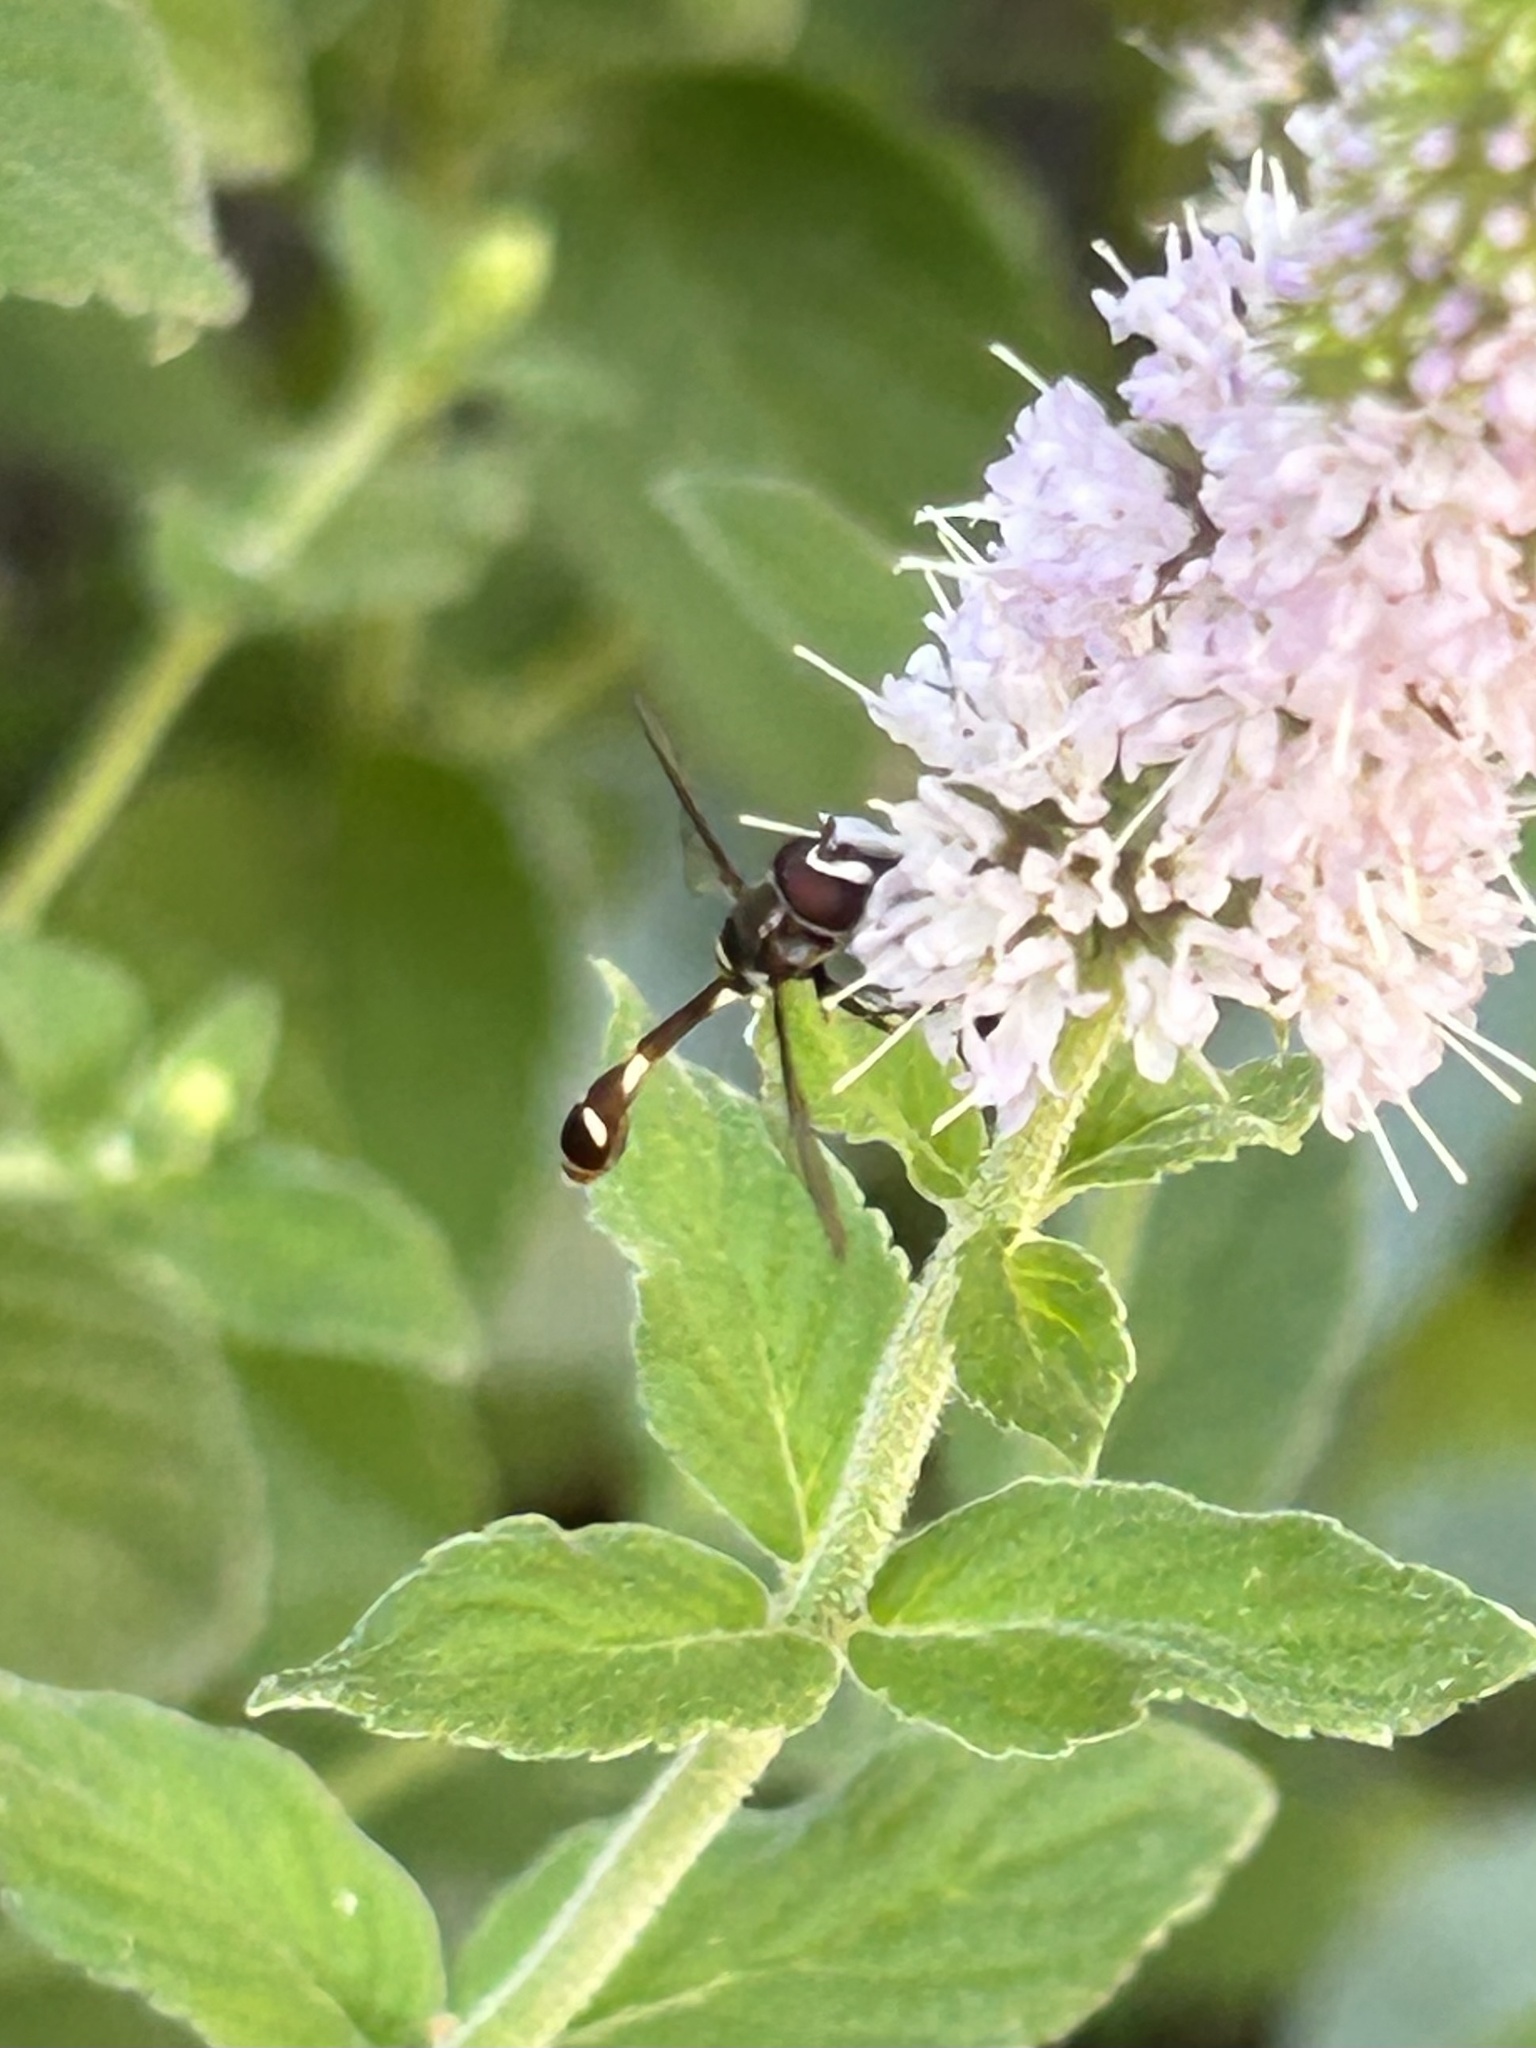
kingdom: Animalia
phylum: Arthropoda
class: Insecta
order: Diptera
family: Syrphidae
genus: Dioprosopa
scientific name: Dioprosopa clavatus
